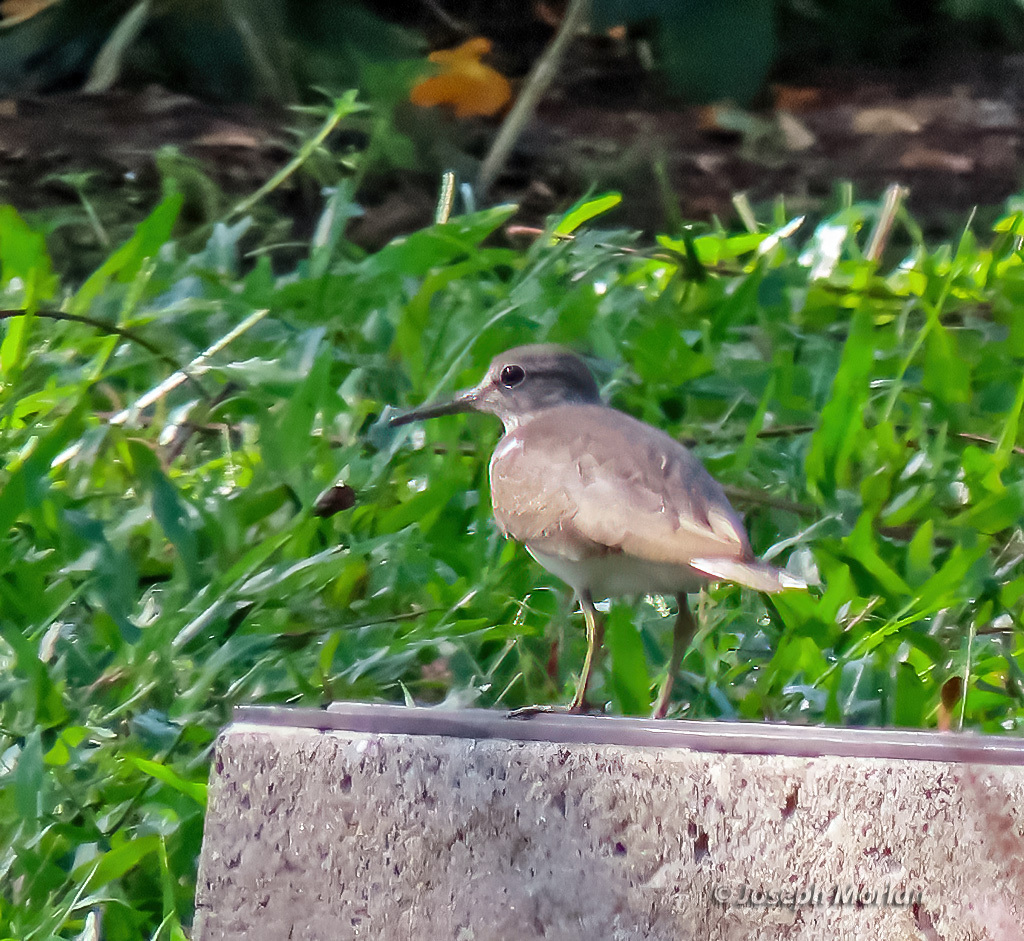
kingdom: Animalia
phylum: Chordata
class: Aves
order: Charadriiformes
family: Scolopacidae
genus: Actitis
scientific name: Actitis hypoleucos
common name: Common sandpiper
